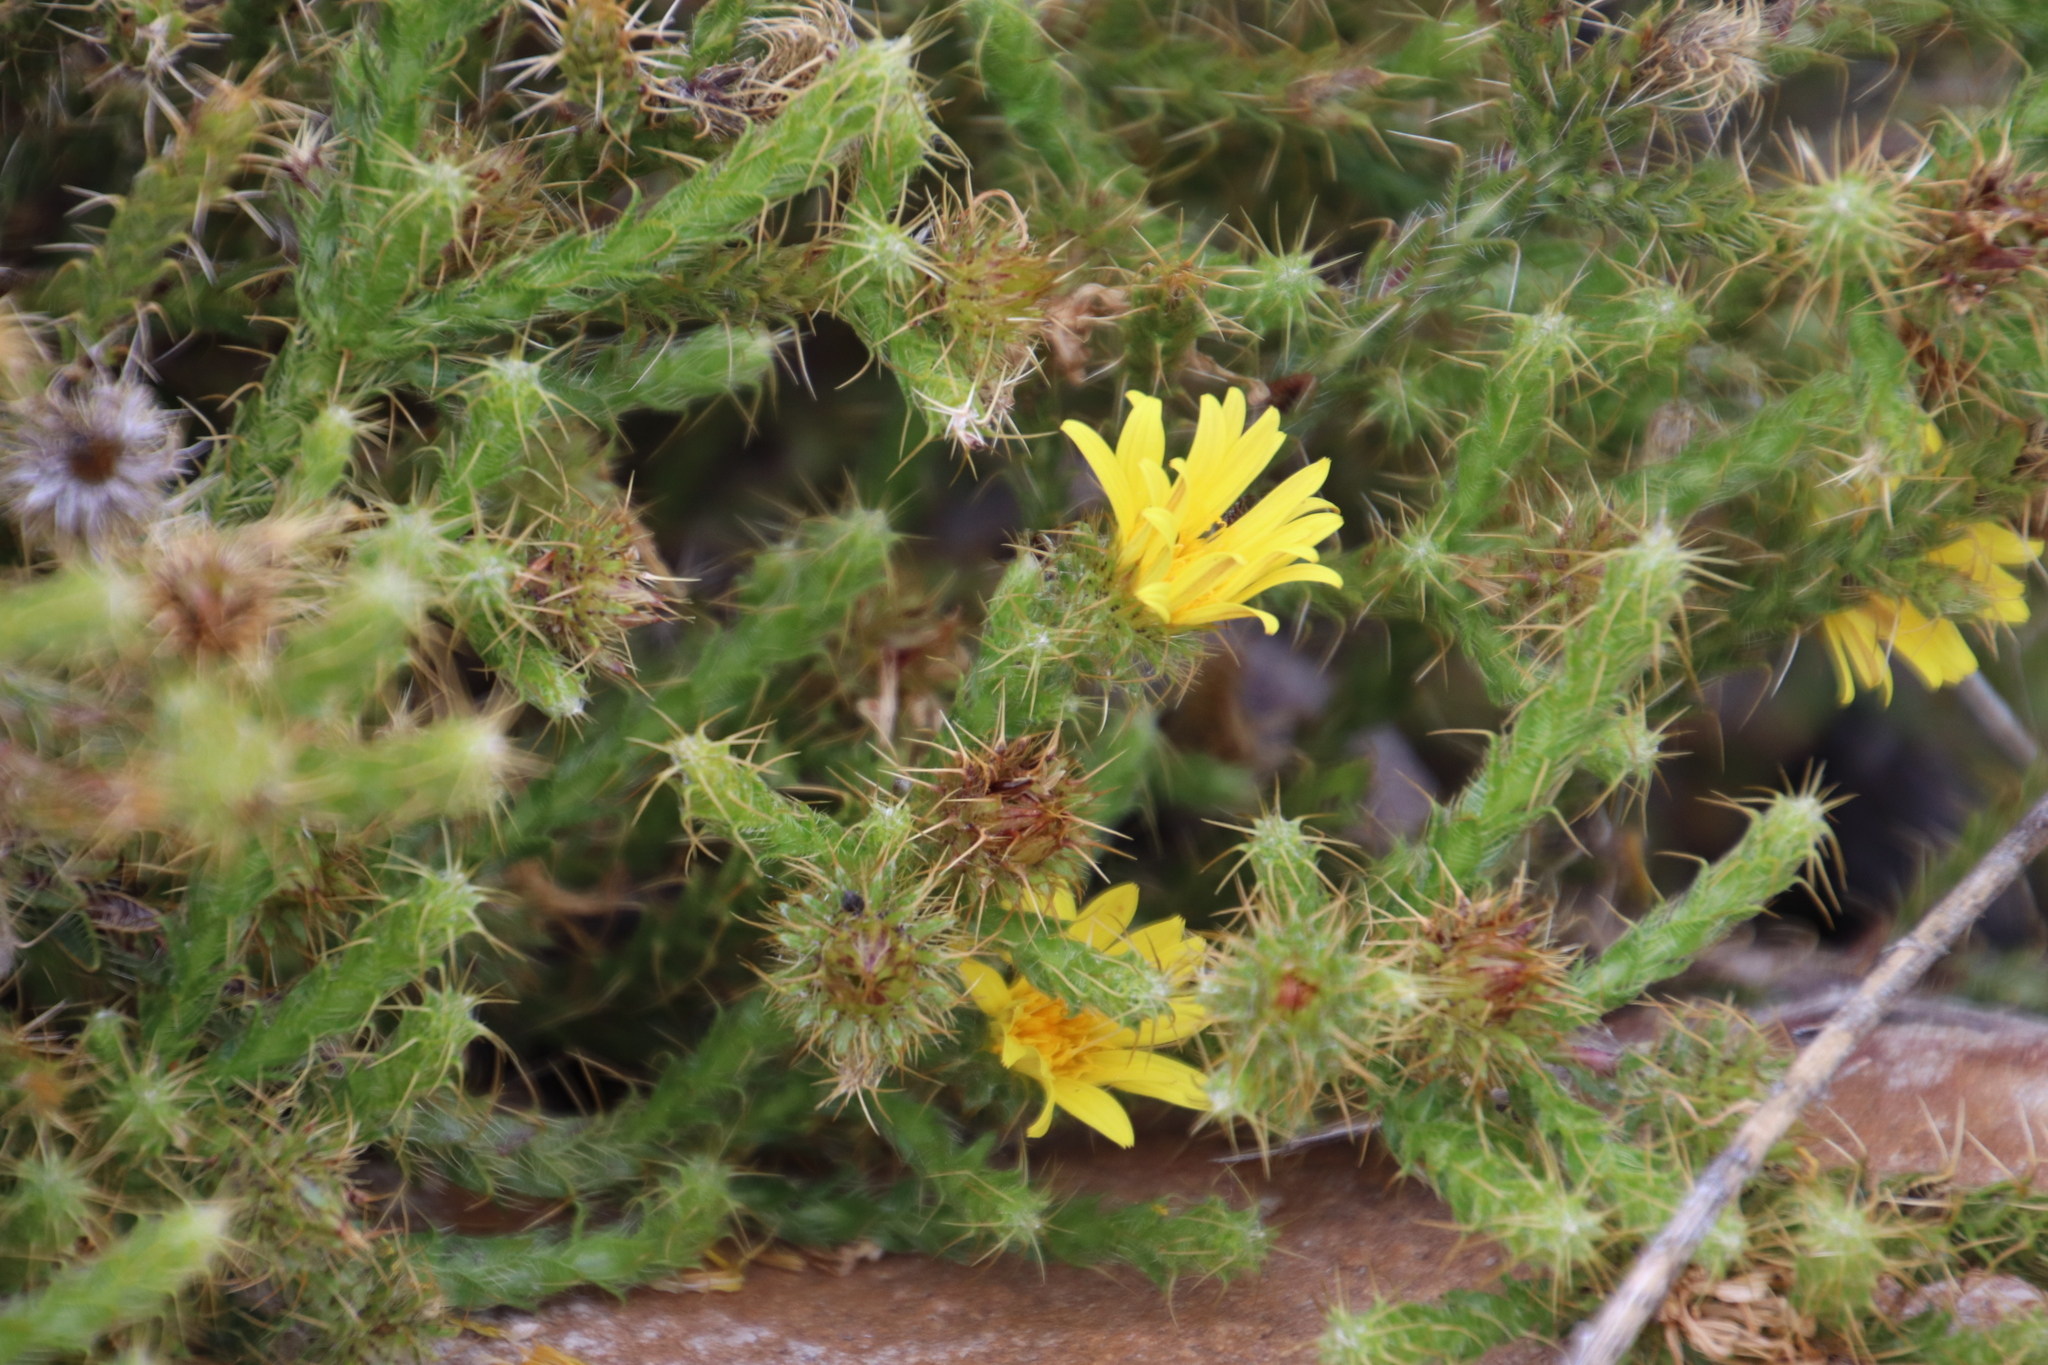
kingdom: Plantae
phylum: Tracheophyta
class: Magnoliopsida
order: Asterales
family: Asteraceae
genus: Cullumia
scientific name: Cullumia reticulata
